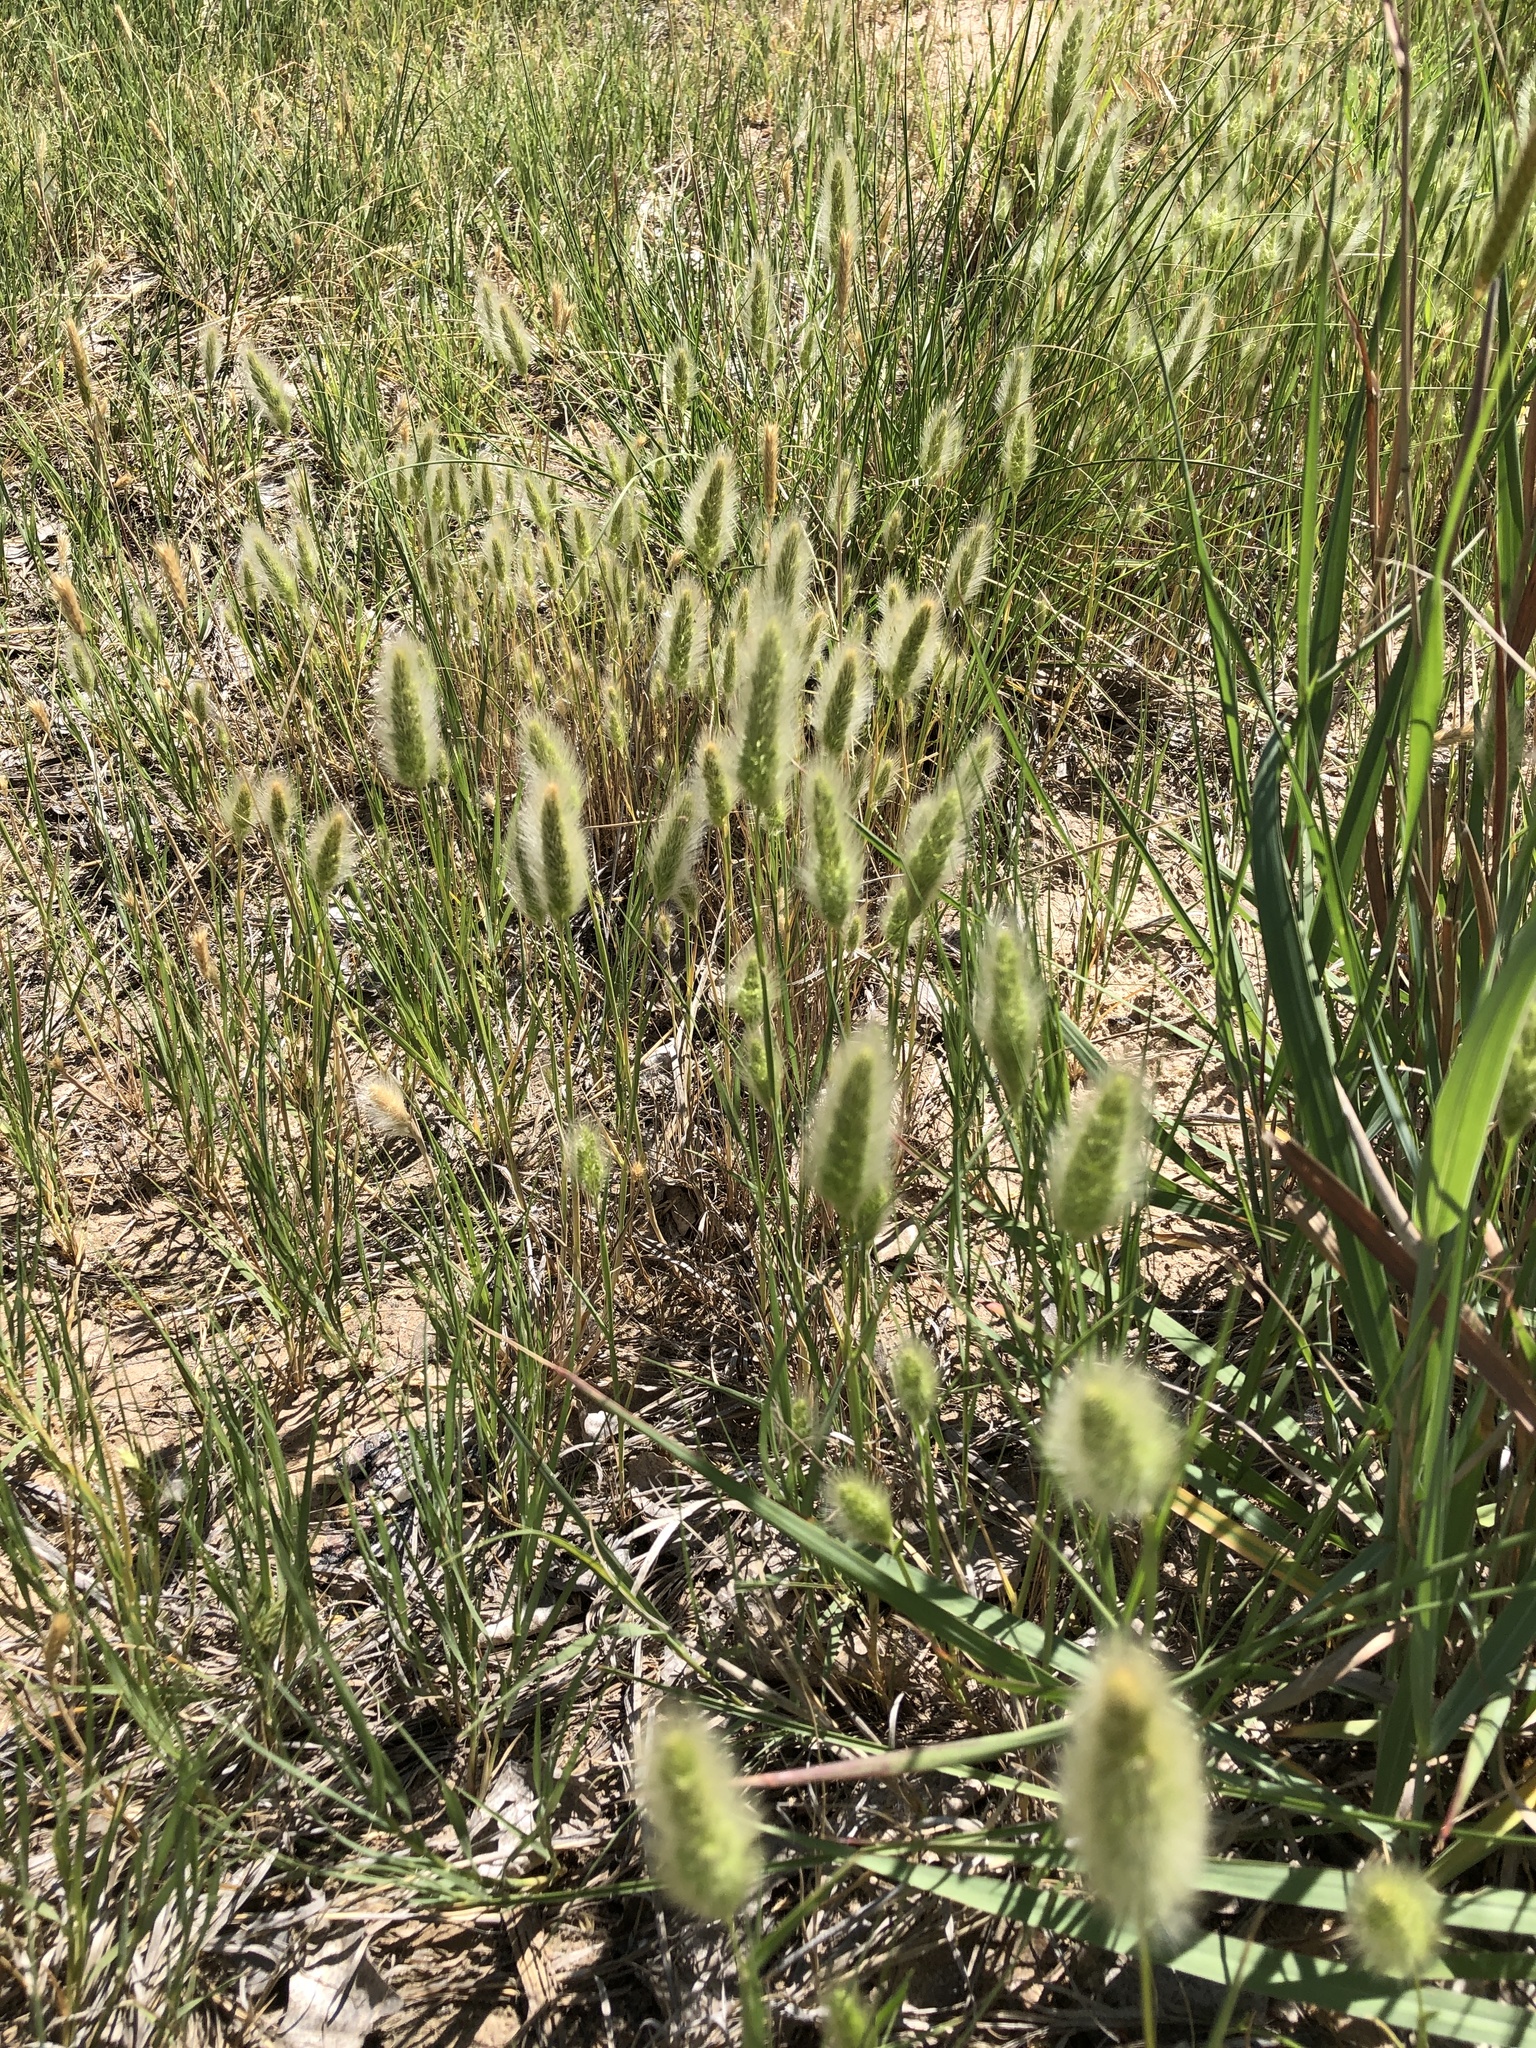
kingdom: Plantae
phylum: Tracheophyta
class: Liliopsida
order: Poales
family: Poaceae
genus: Polypogon
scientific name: Polypogon monspeliensis
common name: Annual rabbitsfoot grass
